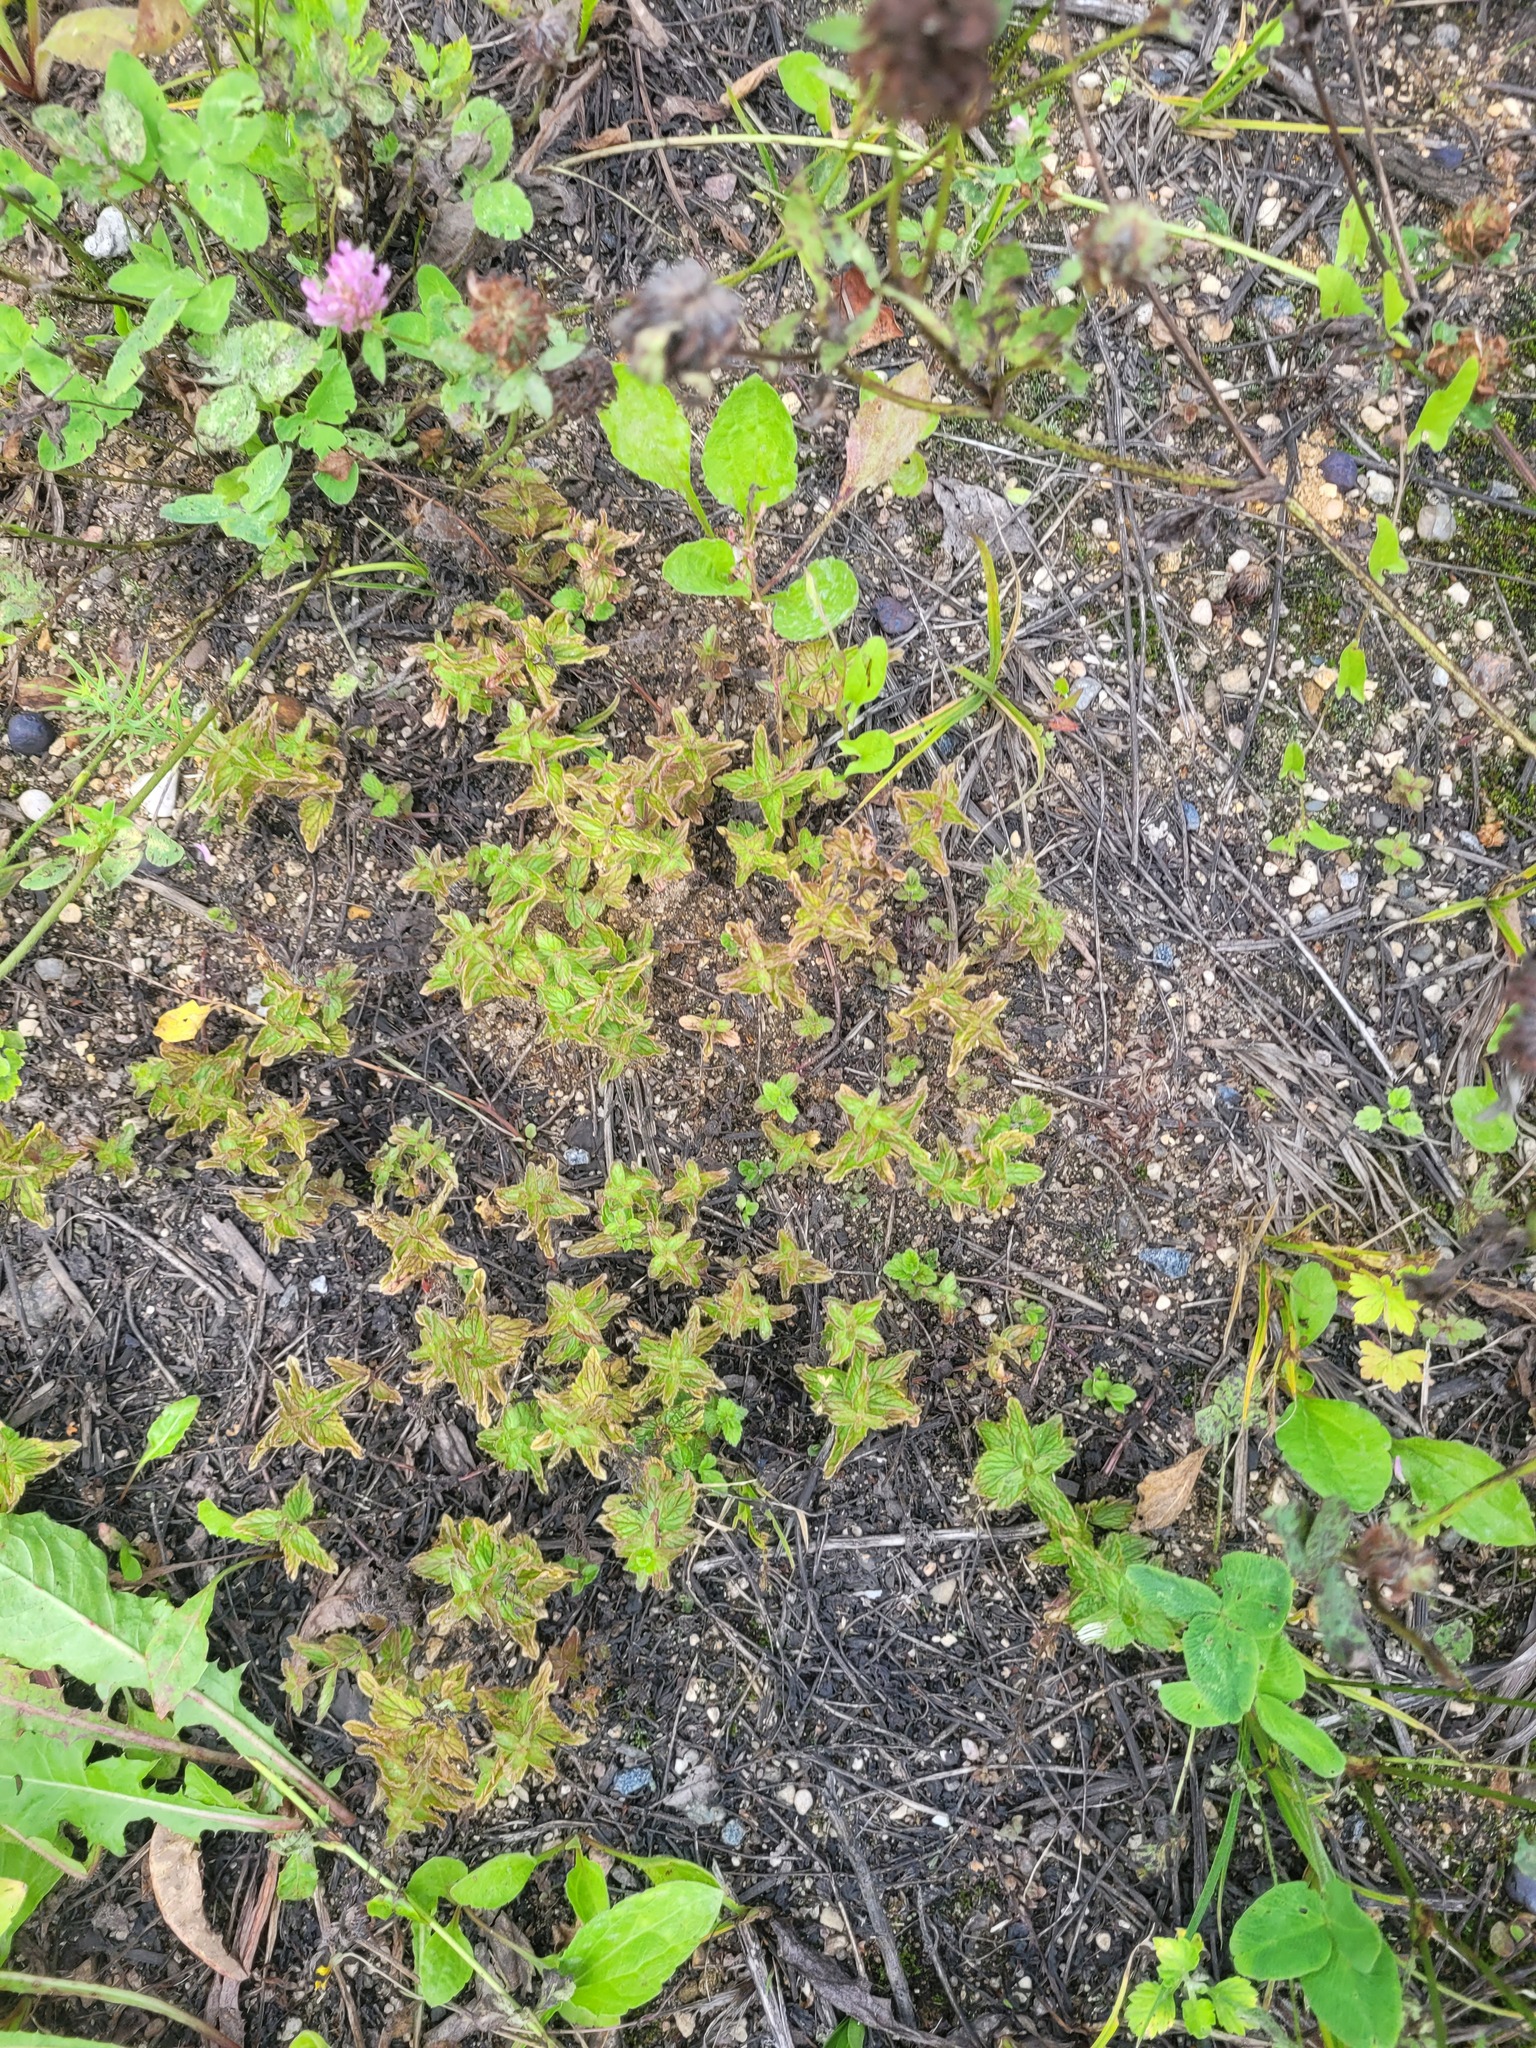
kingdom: Plantae
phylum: Tracheophyta
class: Magnoliopsida
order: Lamiales
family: Plantaginaceae
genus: Veronica
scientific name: Veronica chamaedrys
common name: Germander speedwell
